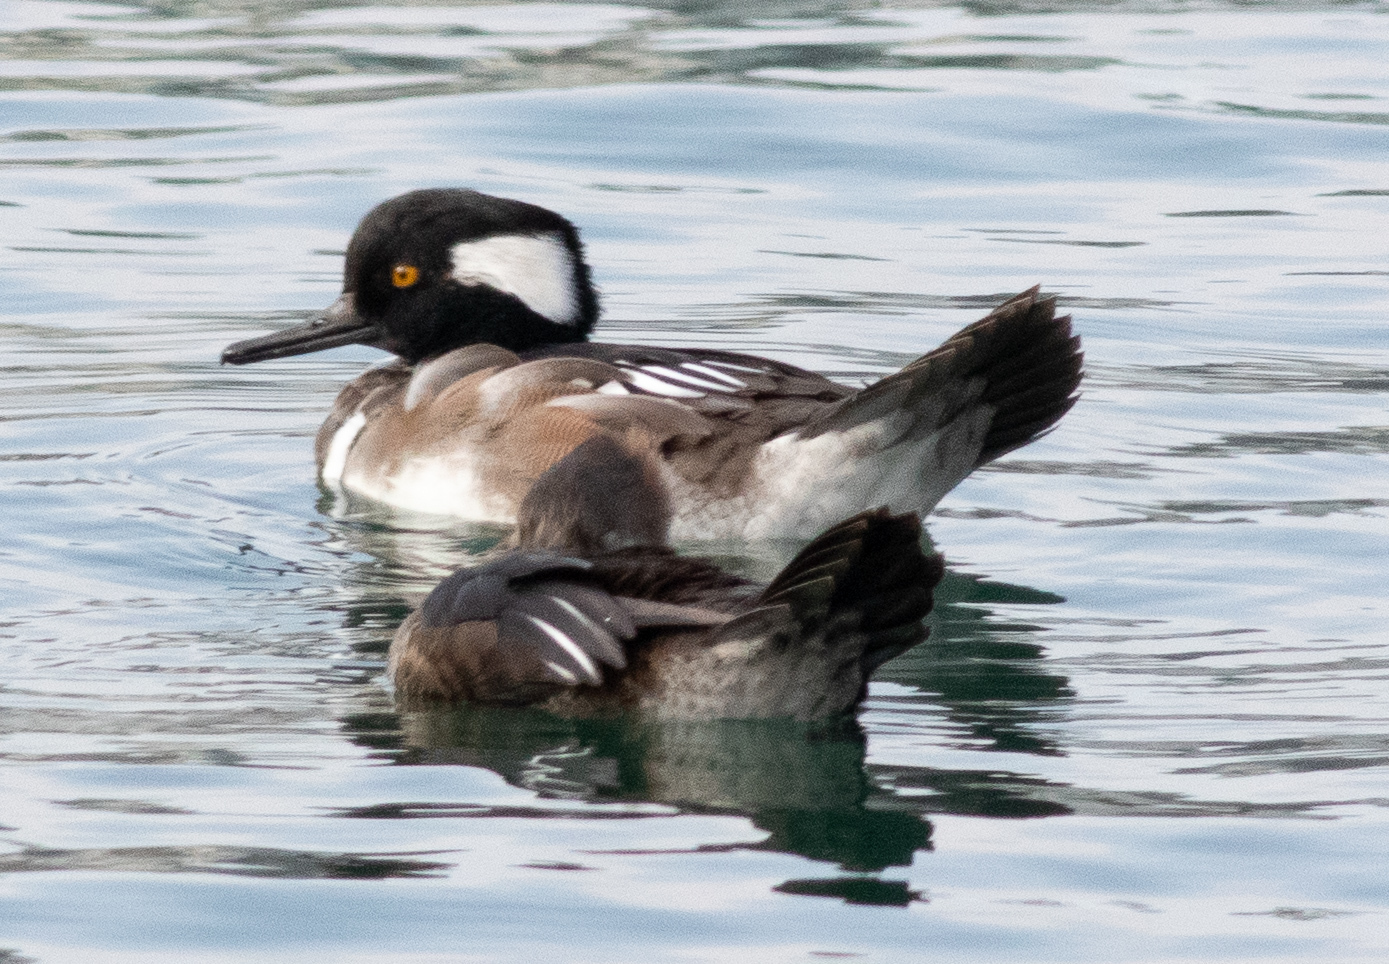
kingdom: Animalia
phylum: Chordata
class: Aves
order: Anseriformes
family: Anatidae
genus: Lophodytes
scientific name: Lophodytes cucullatus
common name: Hooded merganser
